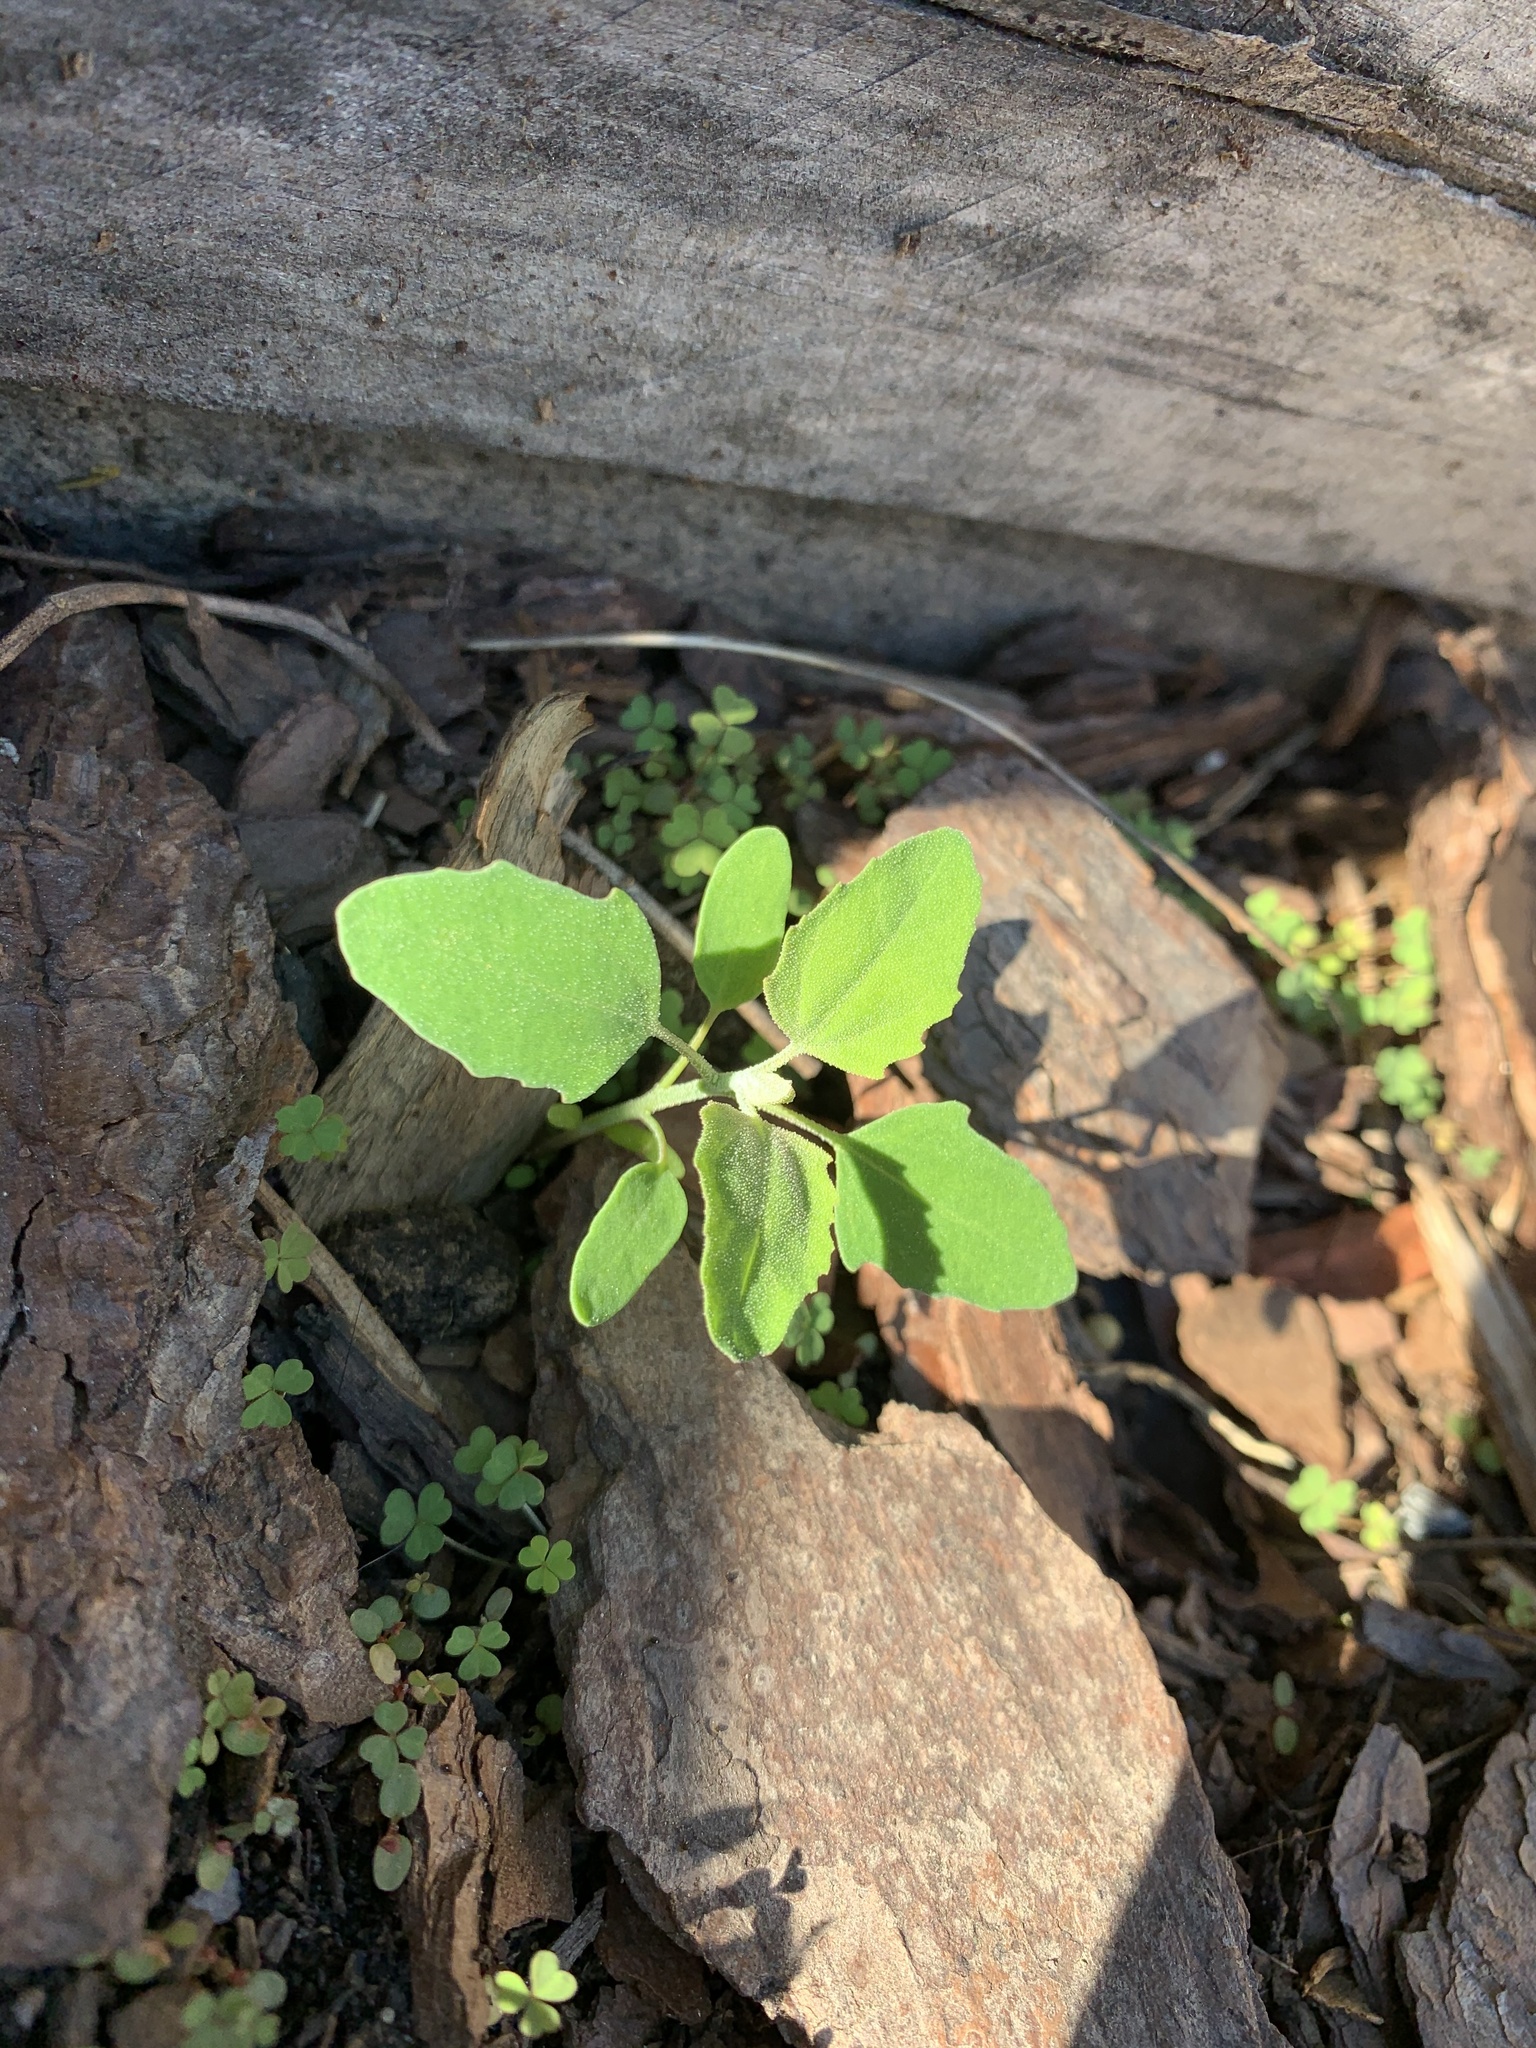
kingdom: Plantae
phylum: Tracheophyta
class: Magnoliopsida
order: Caryophyllales
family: Amaranthaceae
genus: Chenopodium
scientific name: Chenopodium album
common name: Fat-hen
